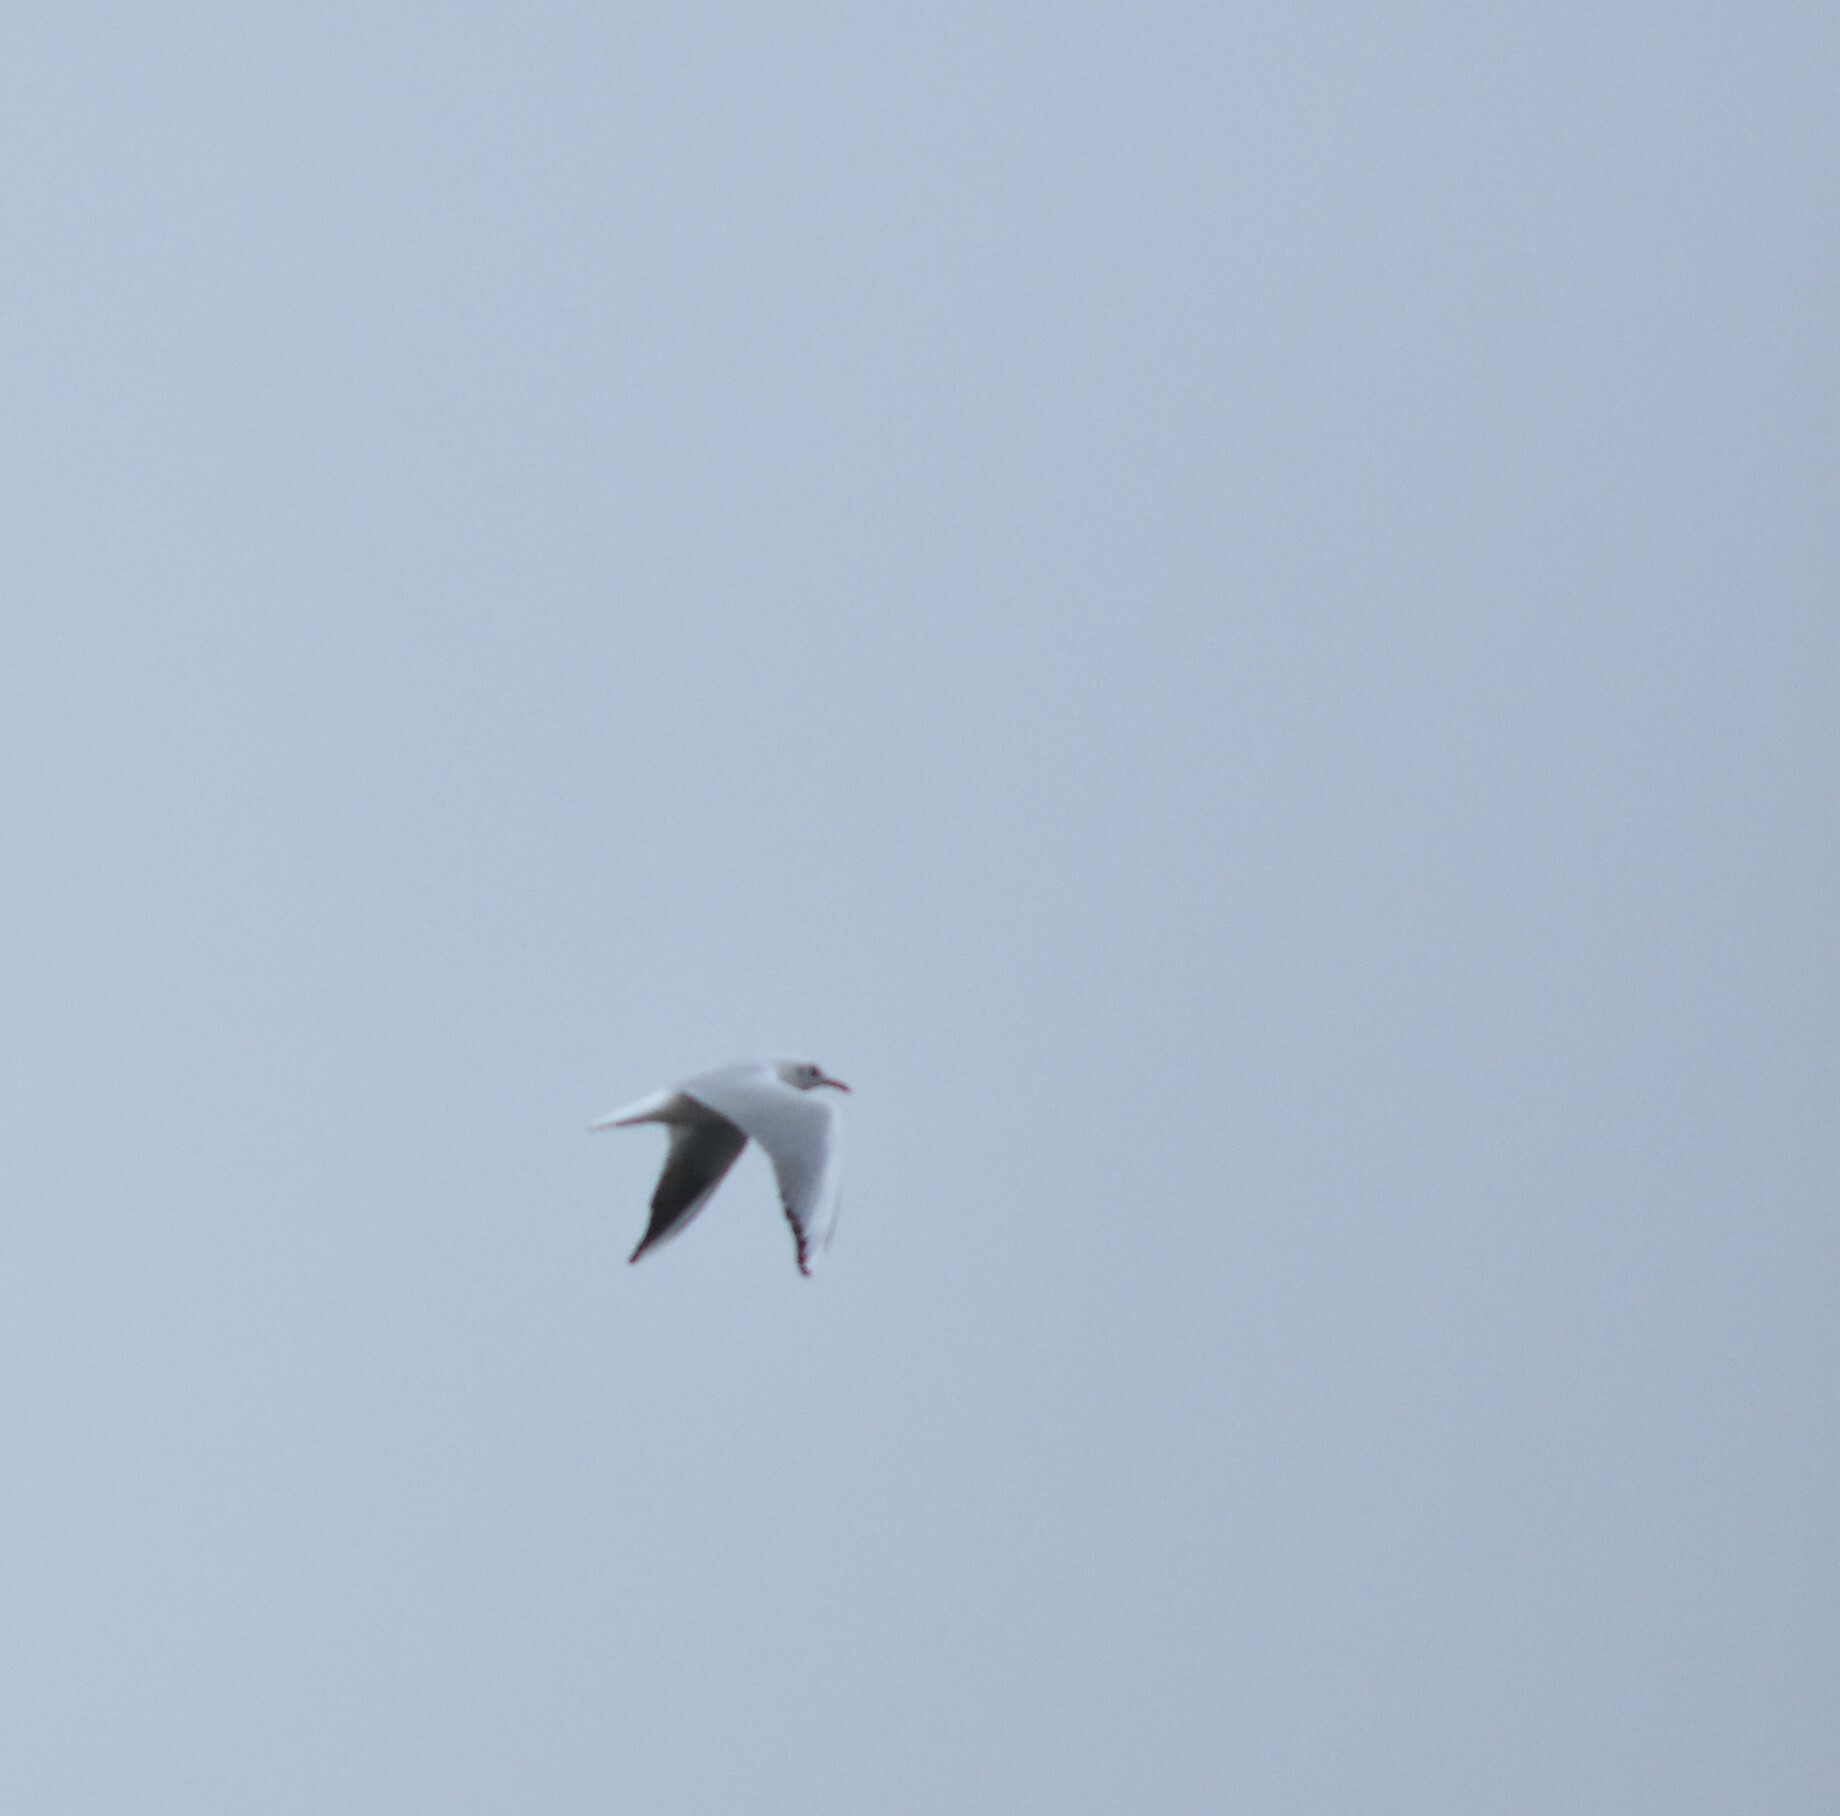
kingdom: Animalia
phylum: Chordata
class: Aves
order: Charadriiformes
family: Laridae
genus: Chroicocephalus
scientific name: Chroicocephalus ridibundus
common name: Black-headed gull
